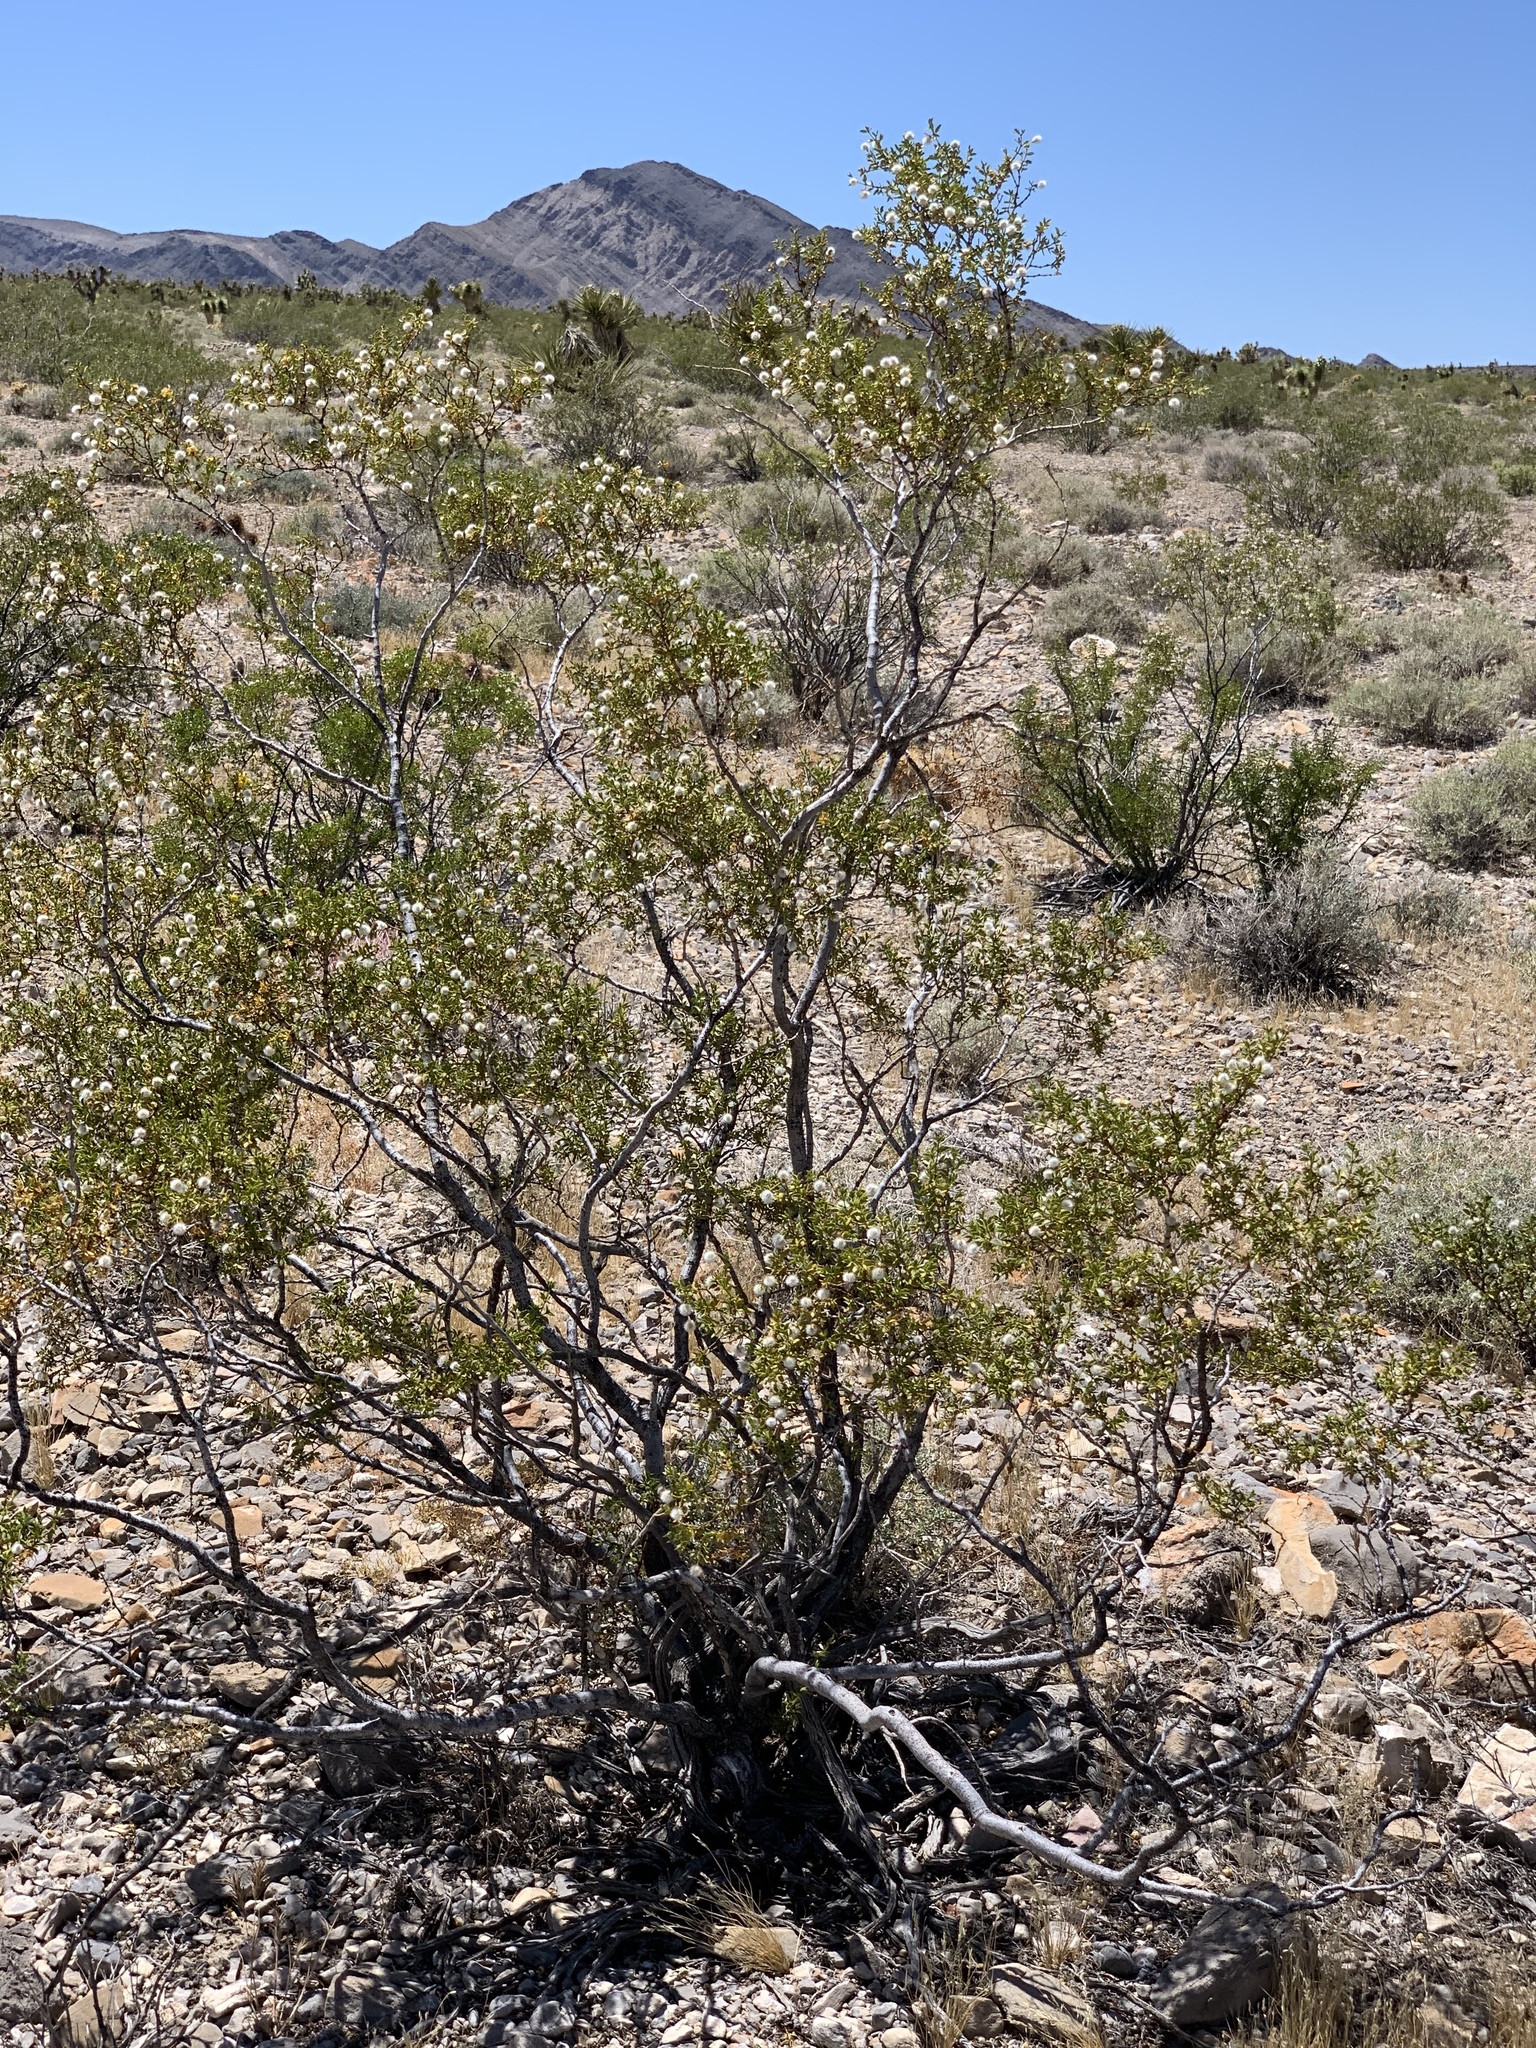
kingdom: Plantae
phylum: Tracheophyta
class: Magnoliopsida
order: Zygophyllales
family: Zygophyllaceae
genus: Larrea
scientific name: Larrea tridentata
